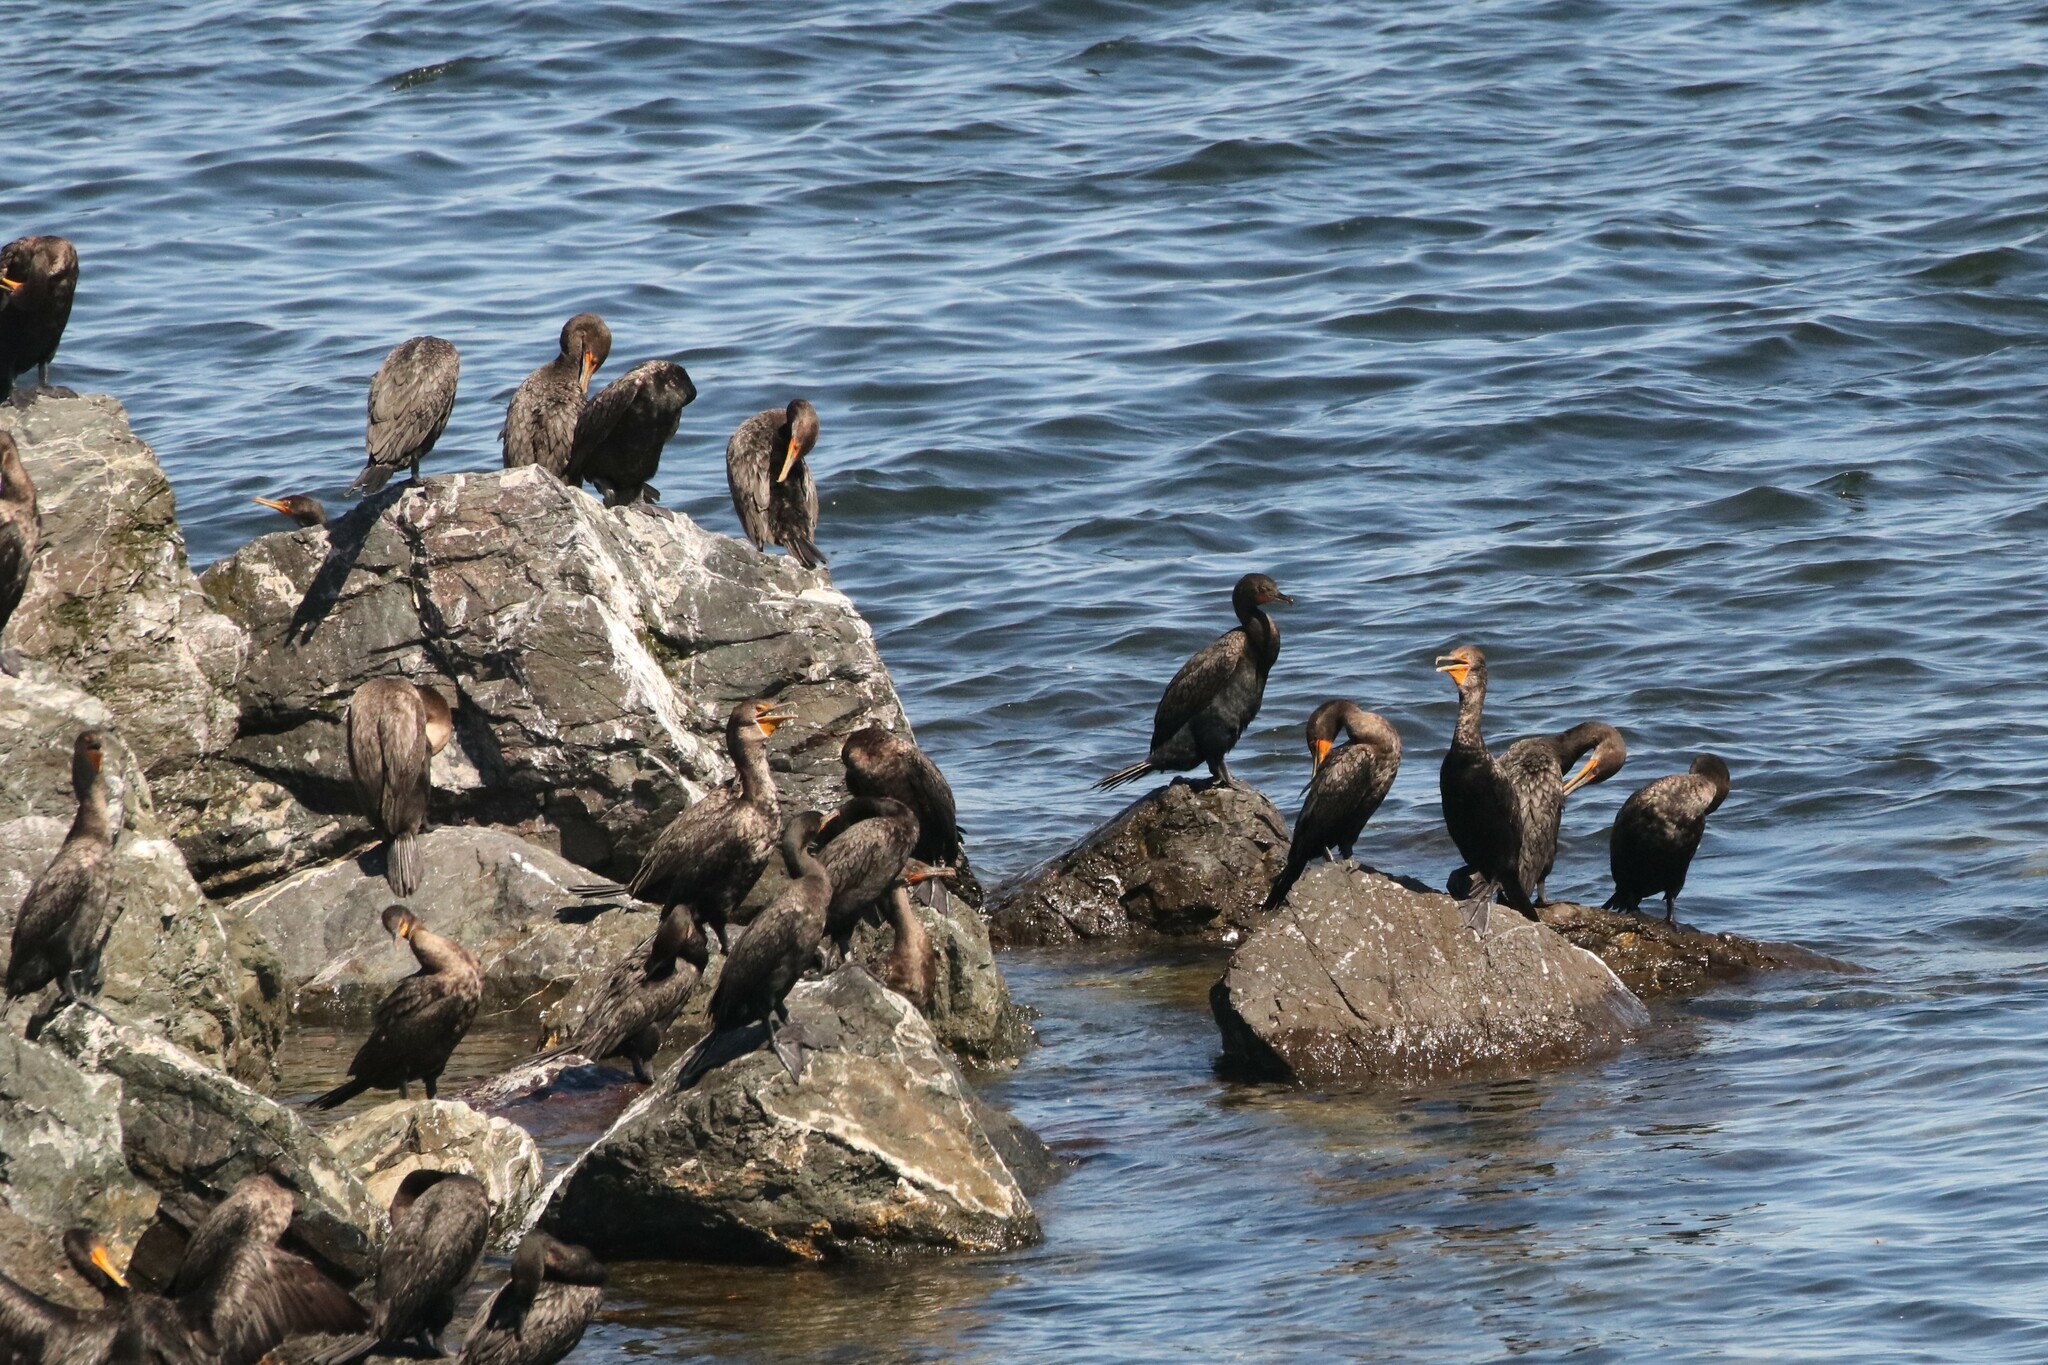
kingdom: Animalia
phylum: Chordata
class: Aves
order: Suliformes
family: Phalacrocoracidae
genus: Phalacrocorax
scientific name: Phalacrocorax auritus
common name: Double-crested cormorant
